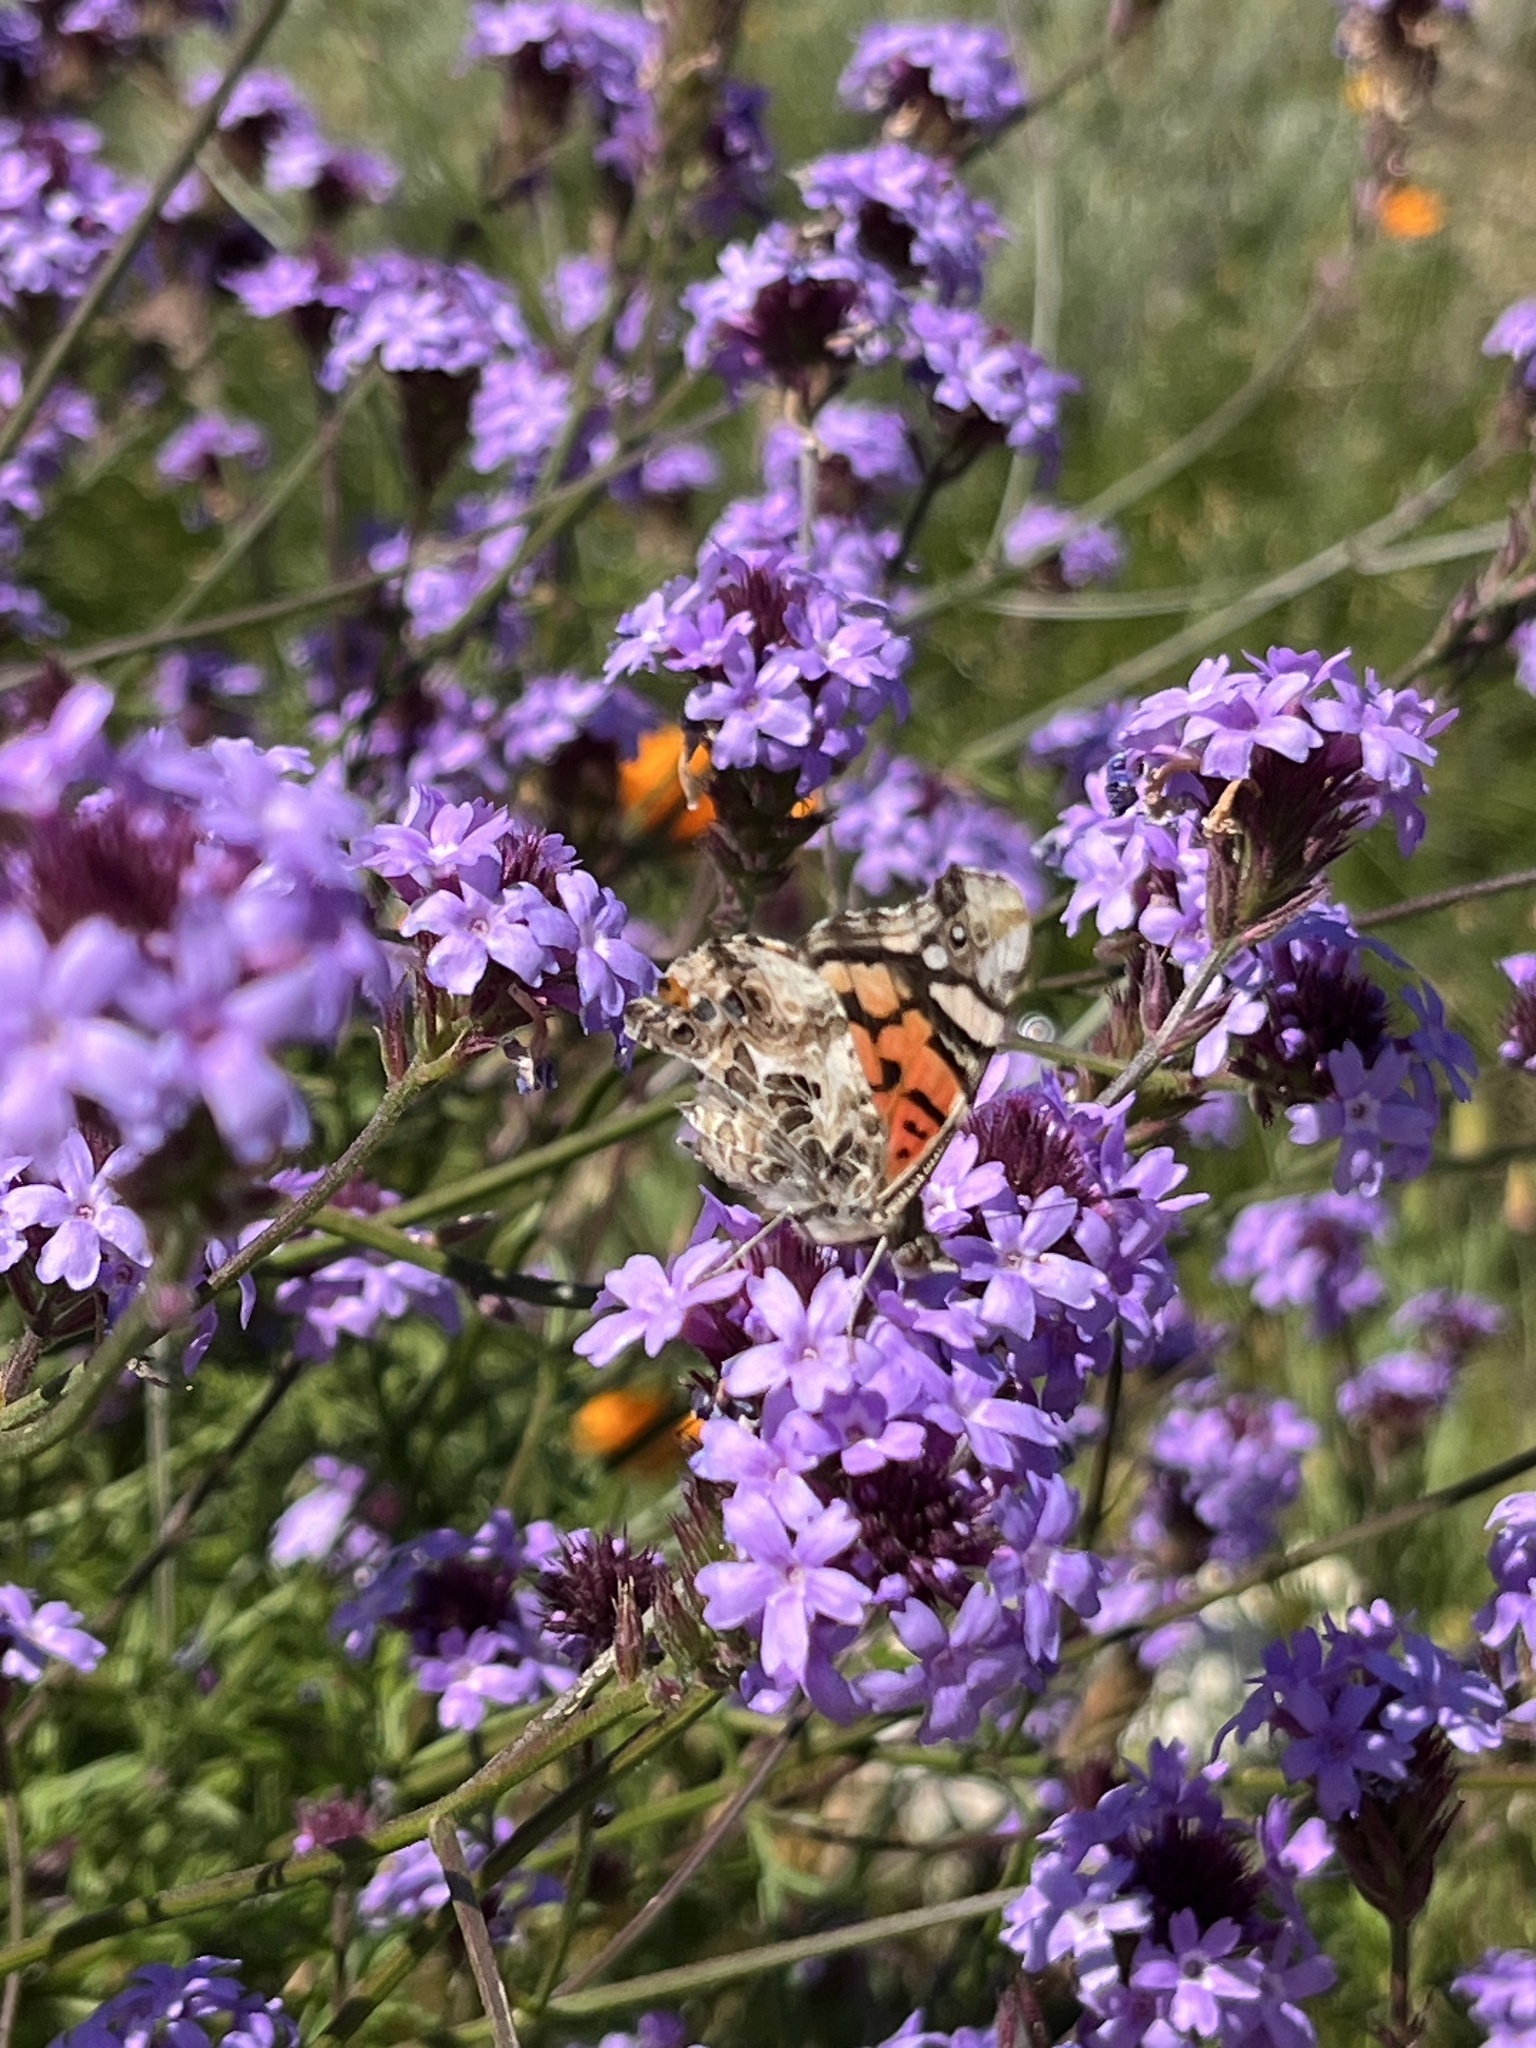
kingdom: Animalia
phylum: Arthropoda
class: Insecta
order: Lepidoptera
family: Nymphalidae
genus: Vanessa
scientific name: Vanessa annabella
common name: West coast lady
